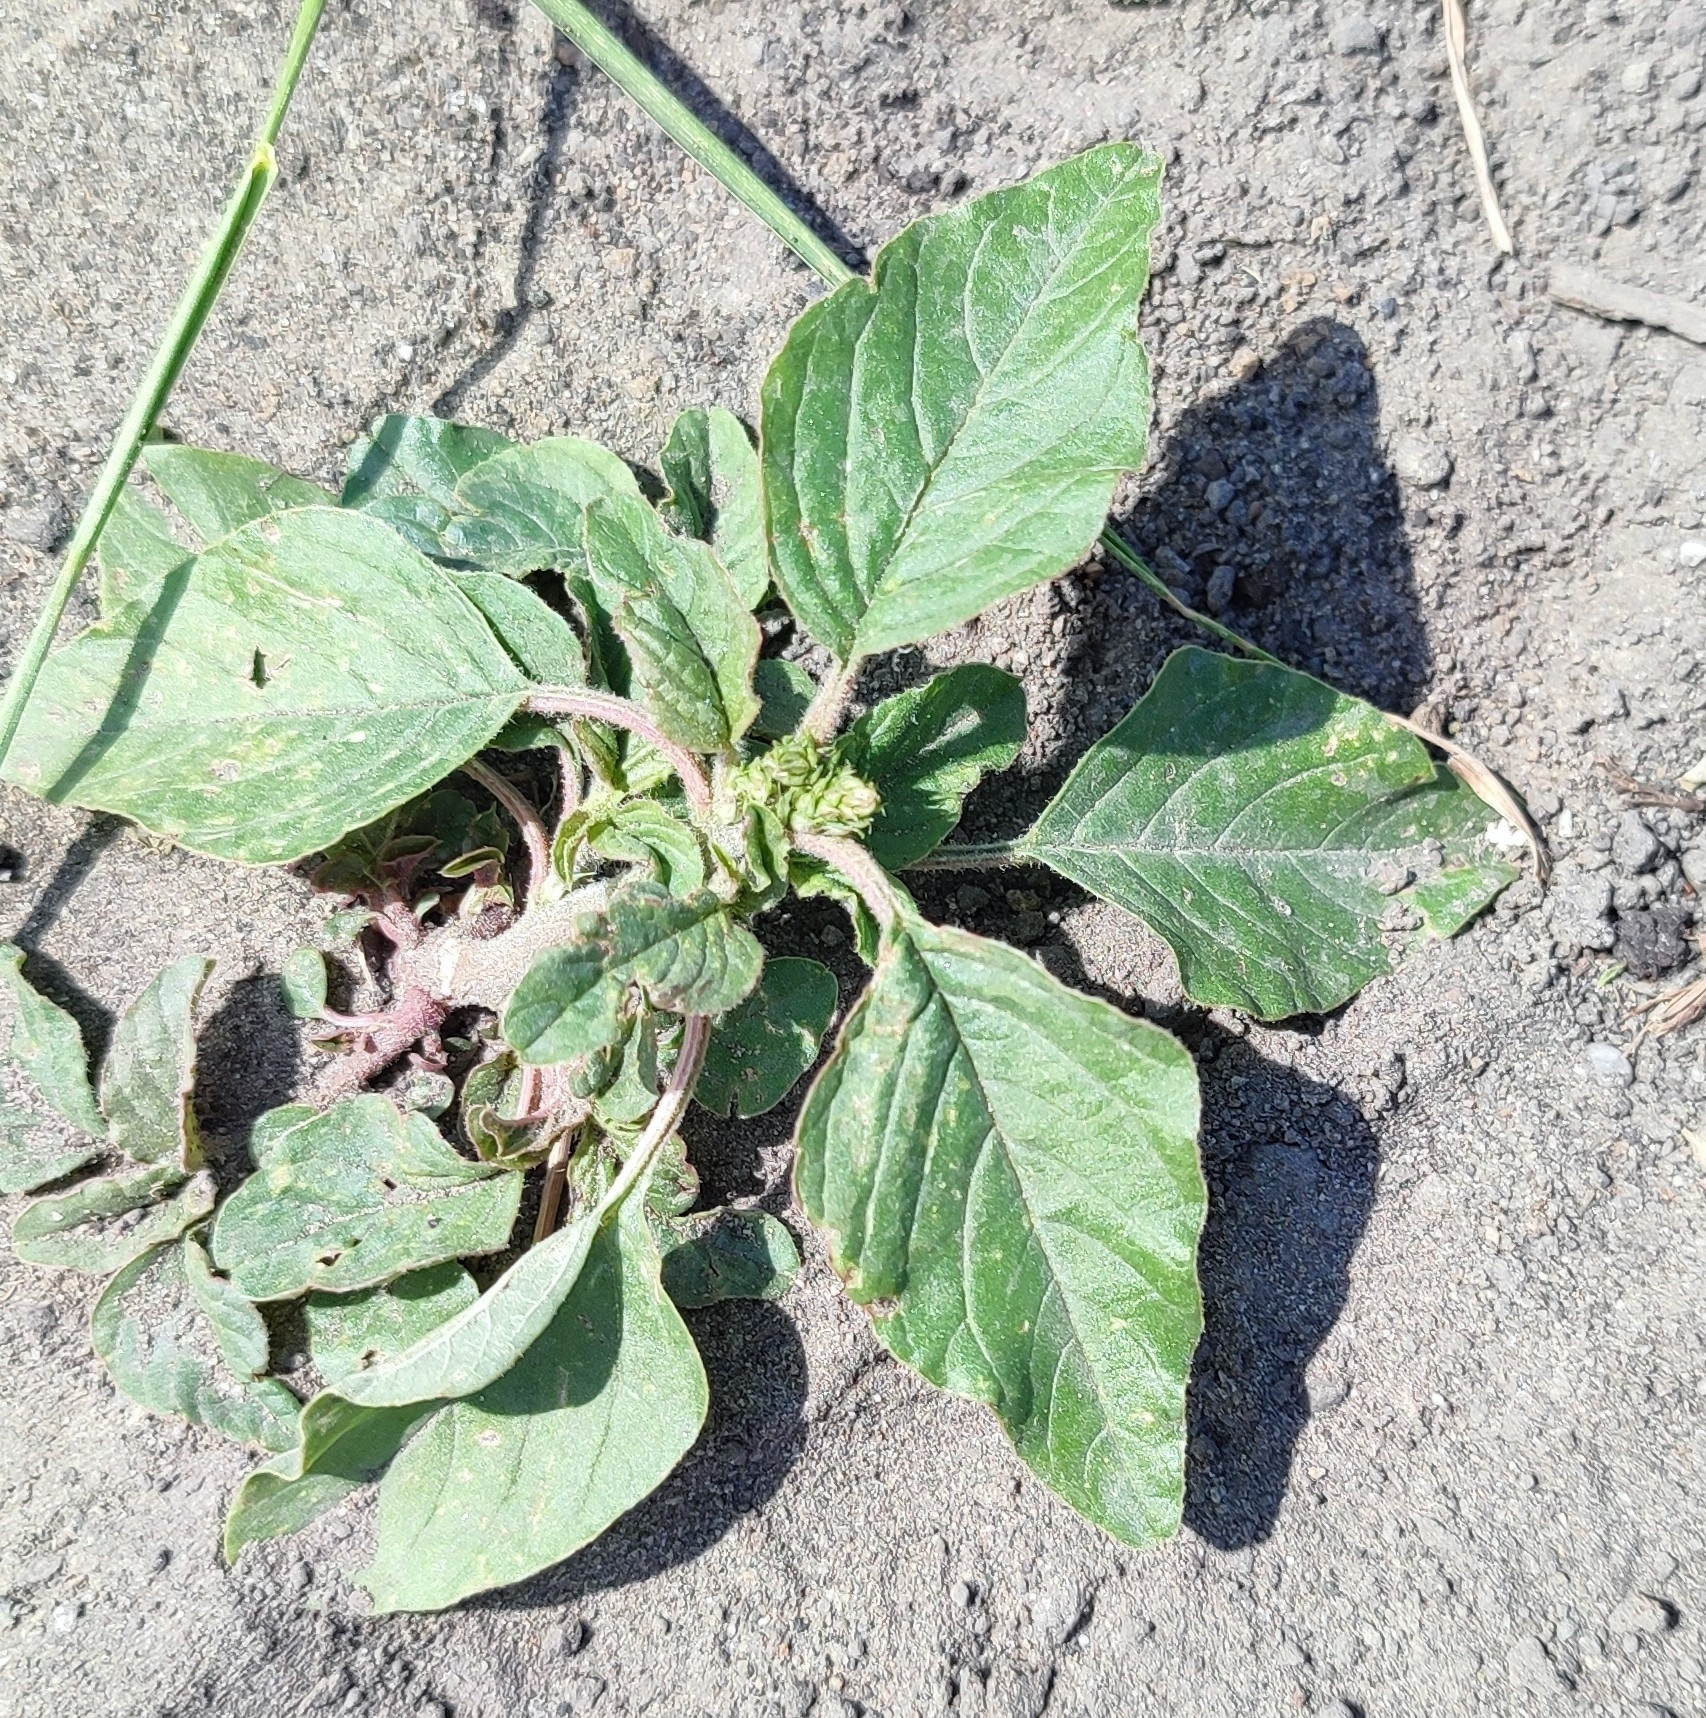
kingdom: Plantae
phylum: Tracheophyta
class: Magnoliopsida
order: Caryophyllales
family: Amaranthaceae
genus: Amaranthus
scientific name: Amaranthus retroflexus
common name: Redroot amaranth
